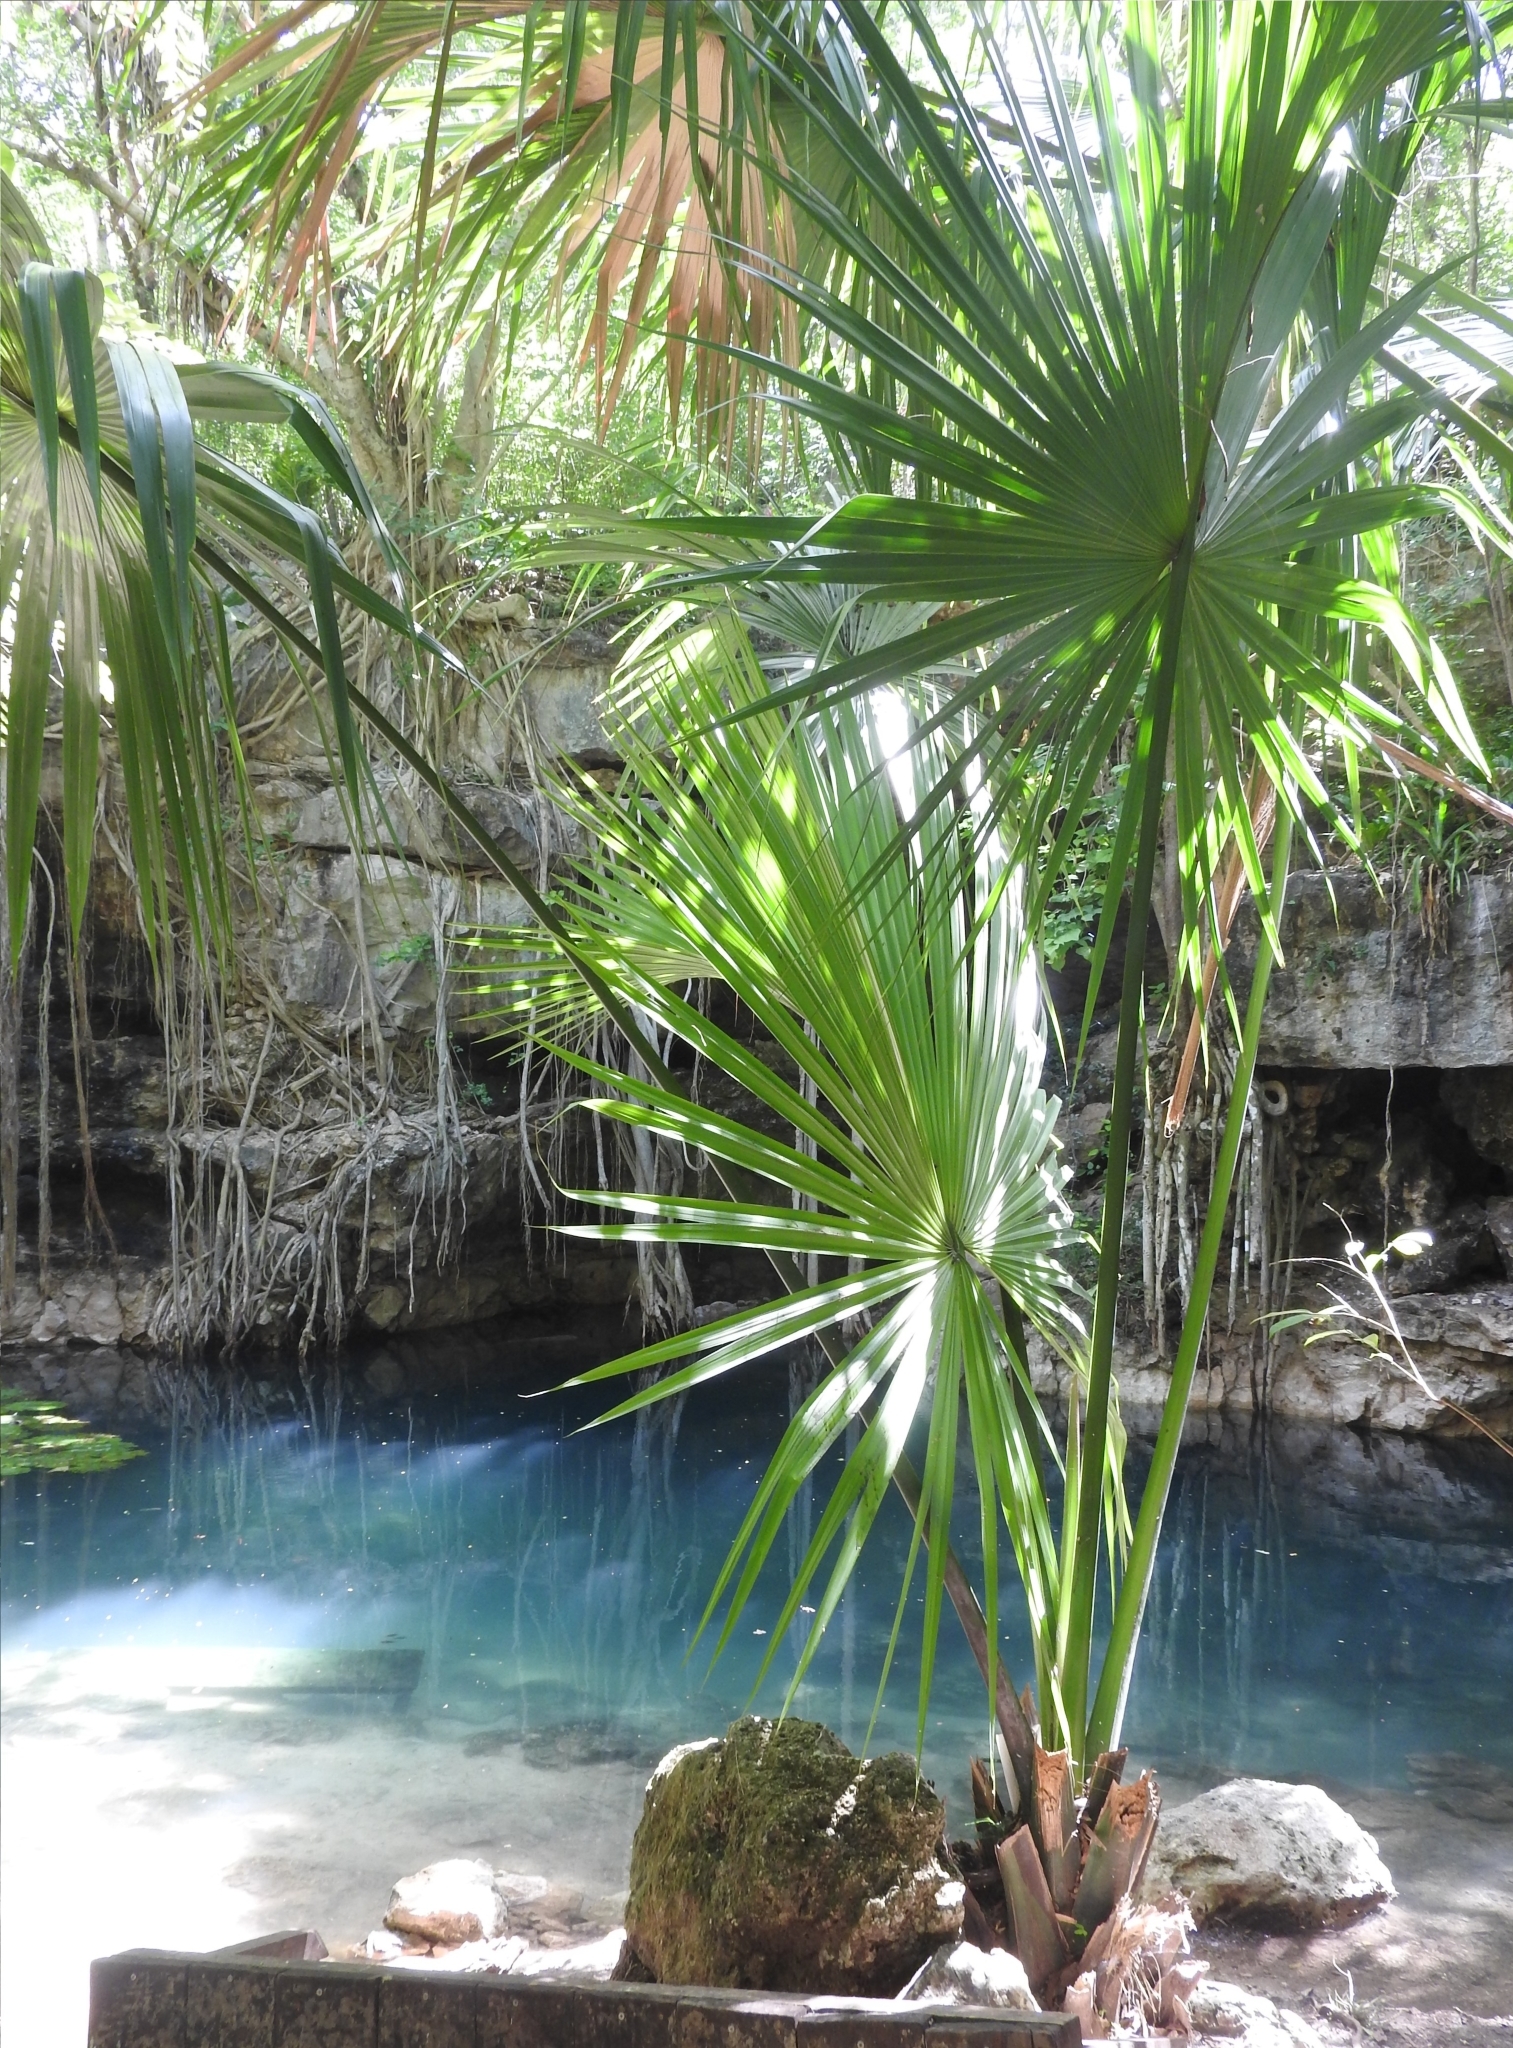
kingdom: Plantae
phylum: Tracheophyta
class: Liliopsida
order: Arecales
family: Arecaceae
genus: Sabal
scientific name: Sabal yapa
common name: Thatch palm
